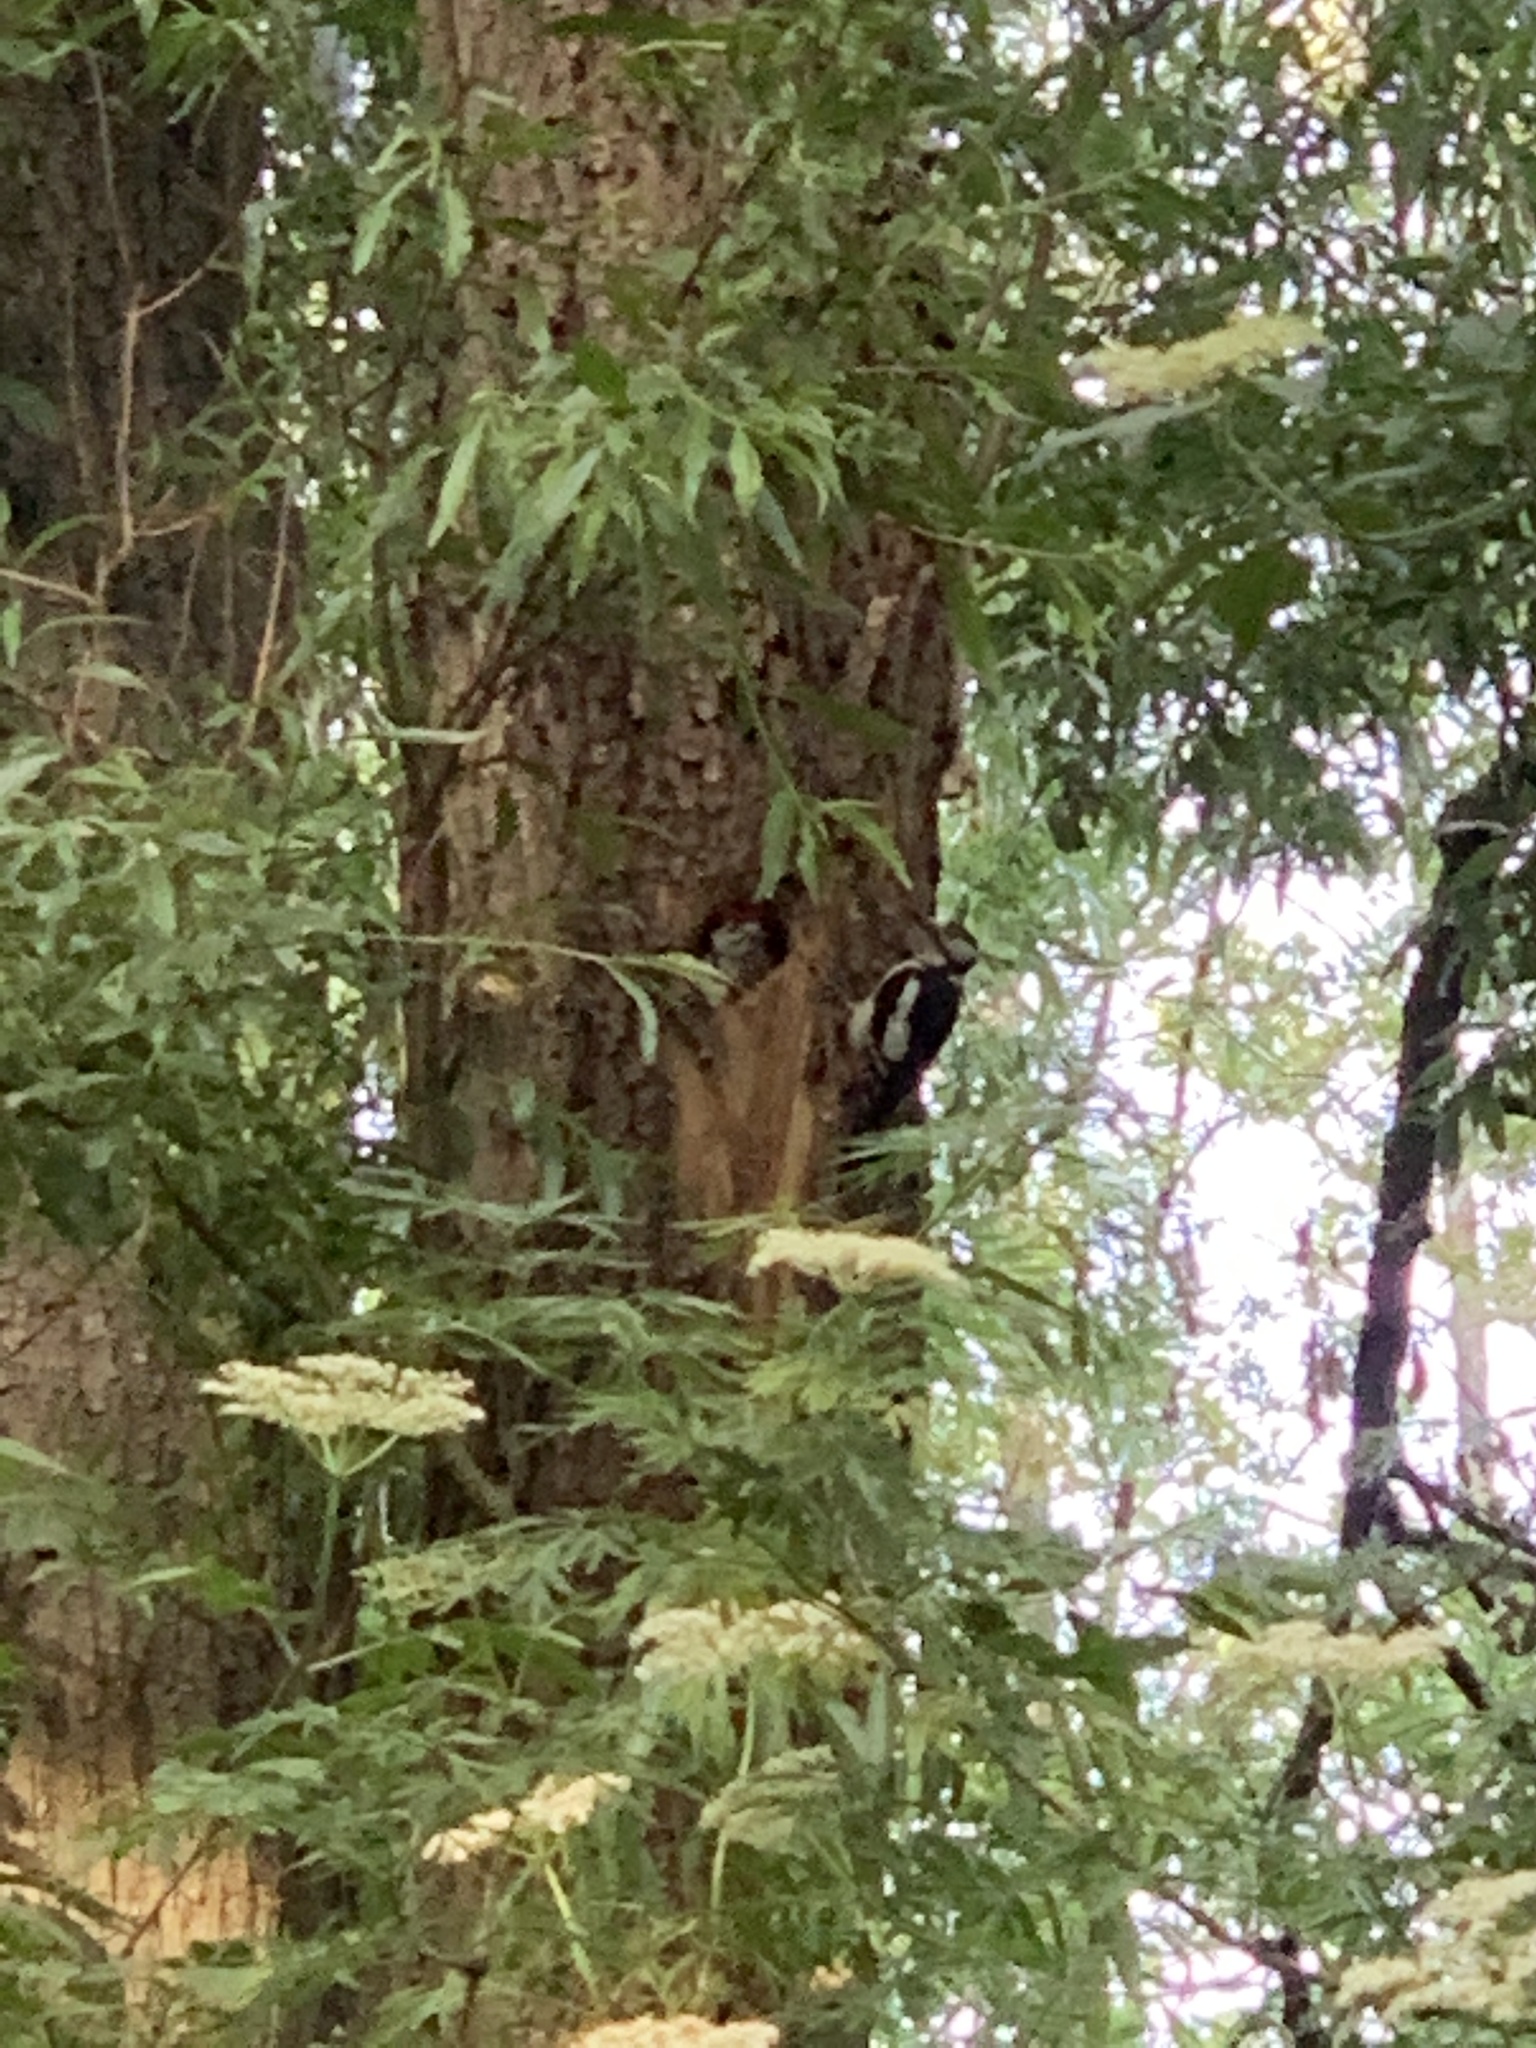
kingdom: Animalia
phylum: Chordata
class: Aves
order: Piciformes
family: Picidae
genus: Dendrocopos
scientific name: Dendrocopos major
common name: Great spotted woodpecker
